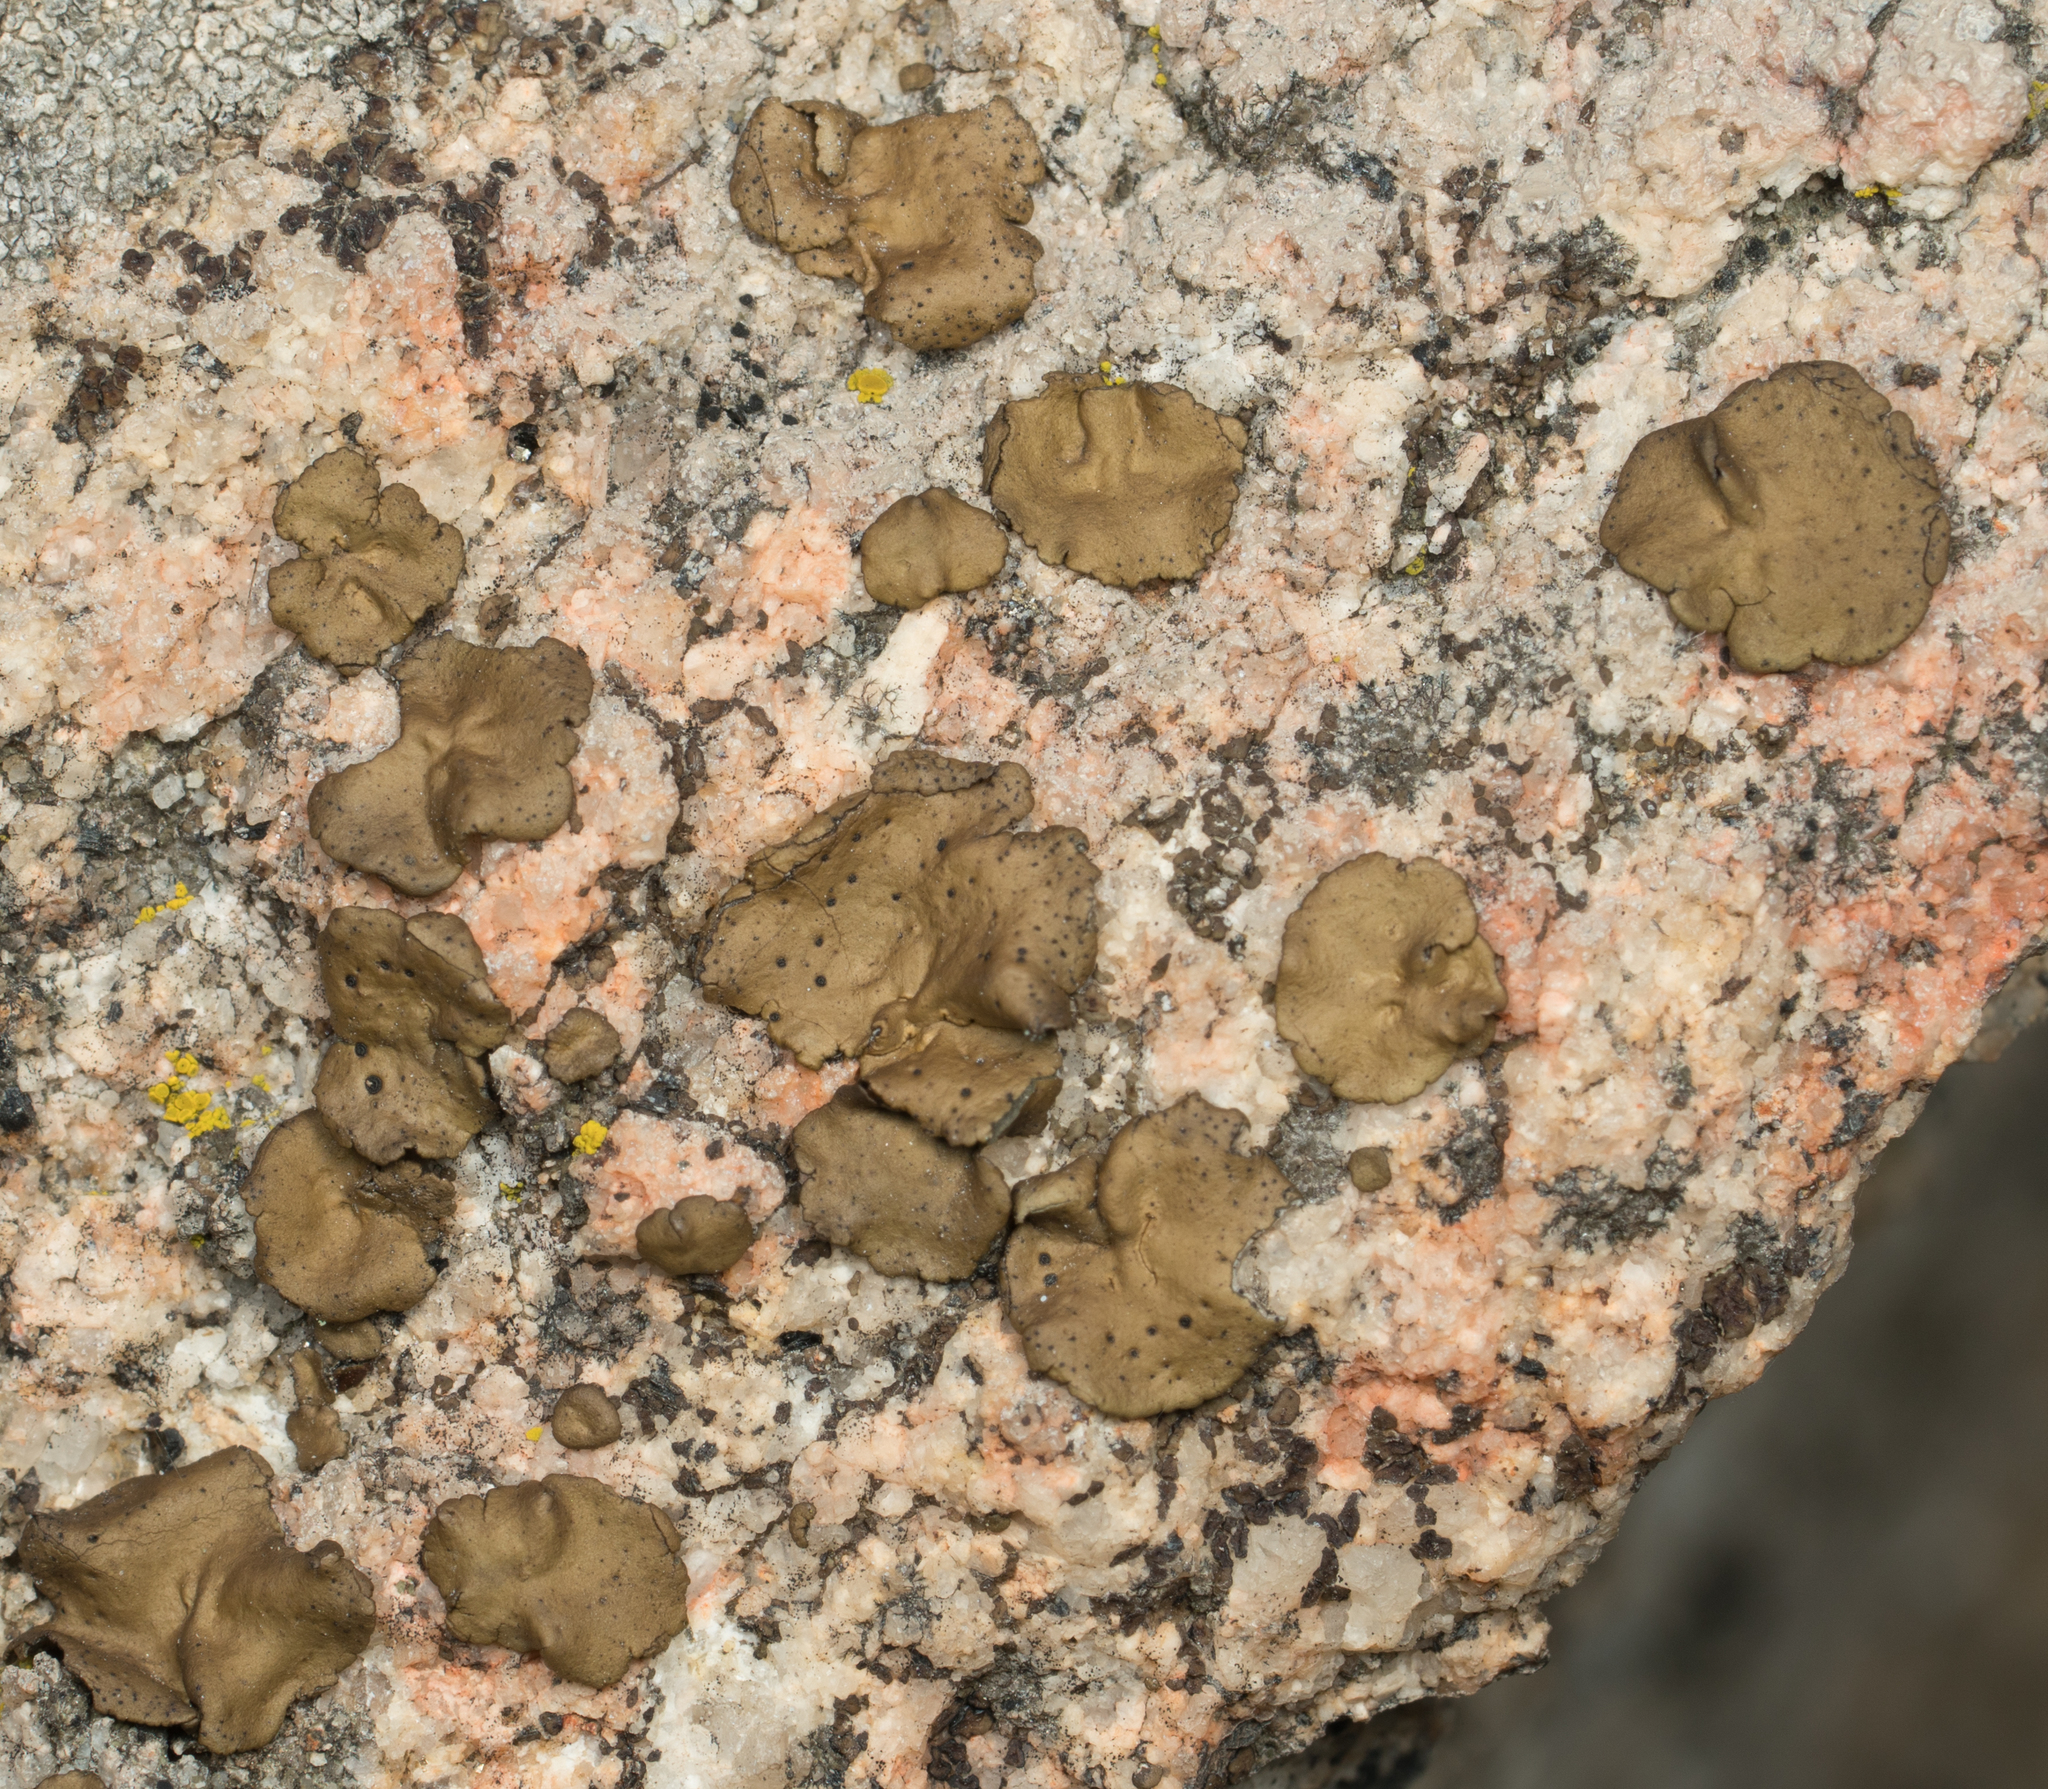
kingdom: Fungi
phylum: Ascomycota
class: Lecanoromycetes
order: Umbilicariales
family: Umbilicariaceae
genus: Umbilicaria
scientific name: Umbilicaria phaea
